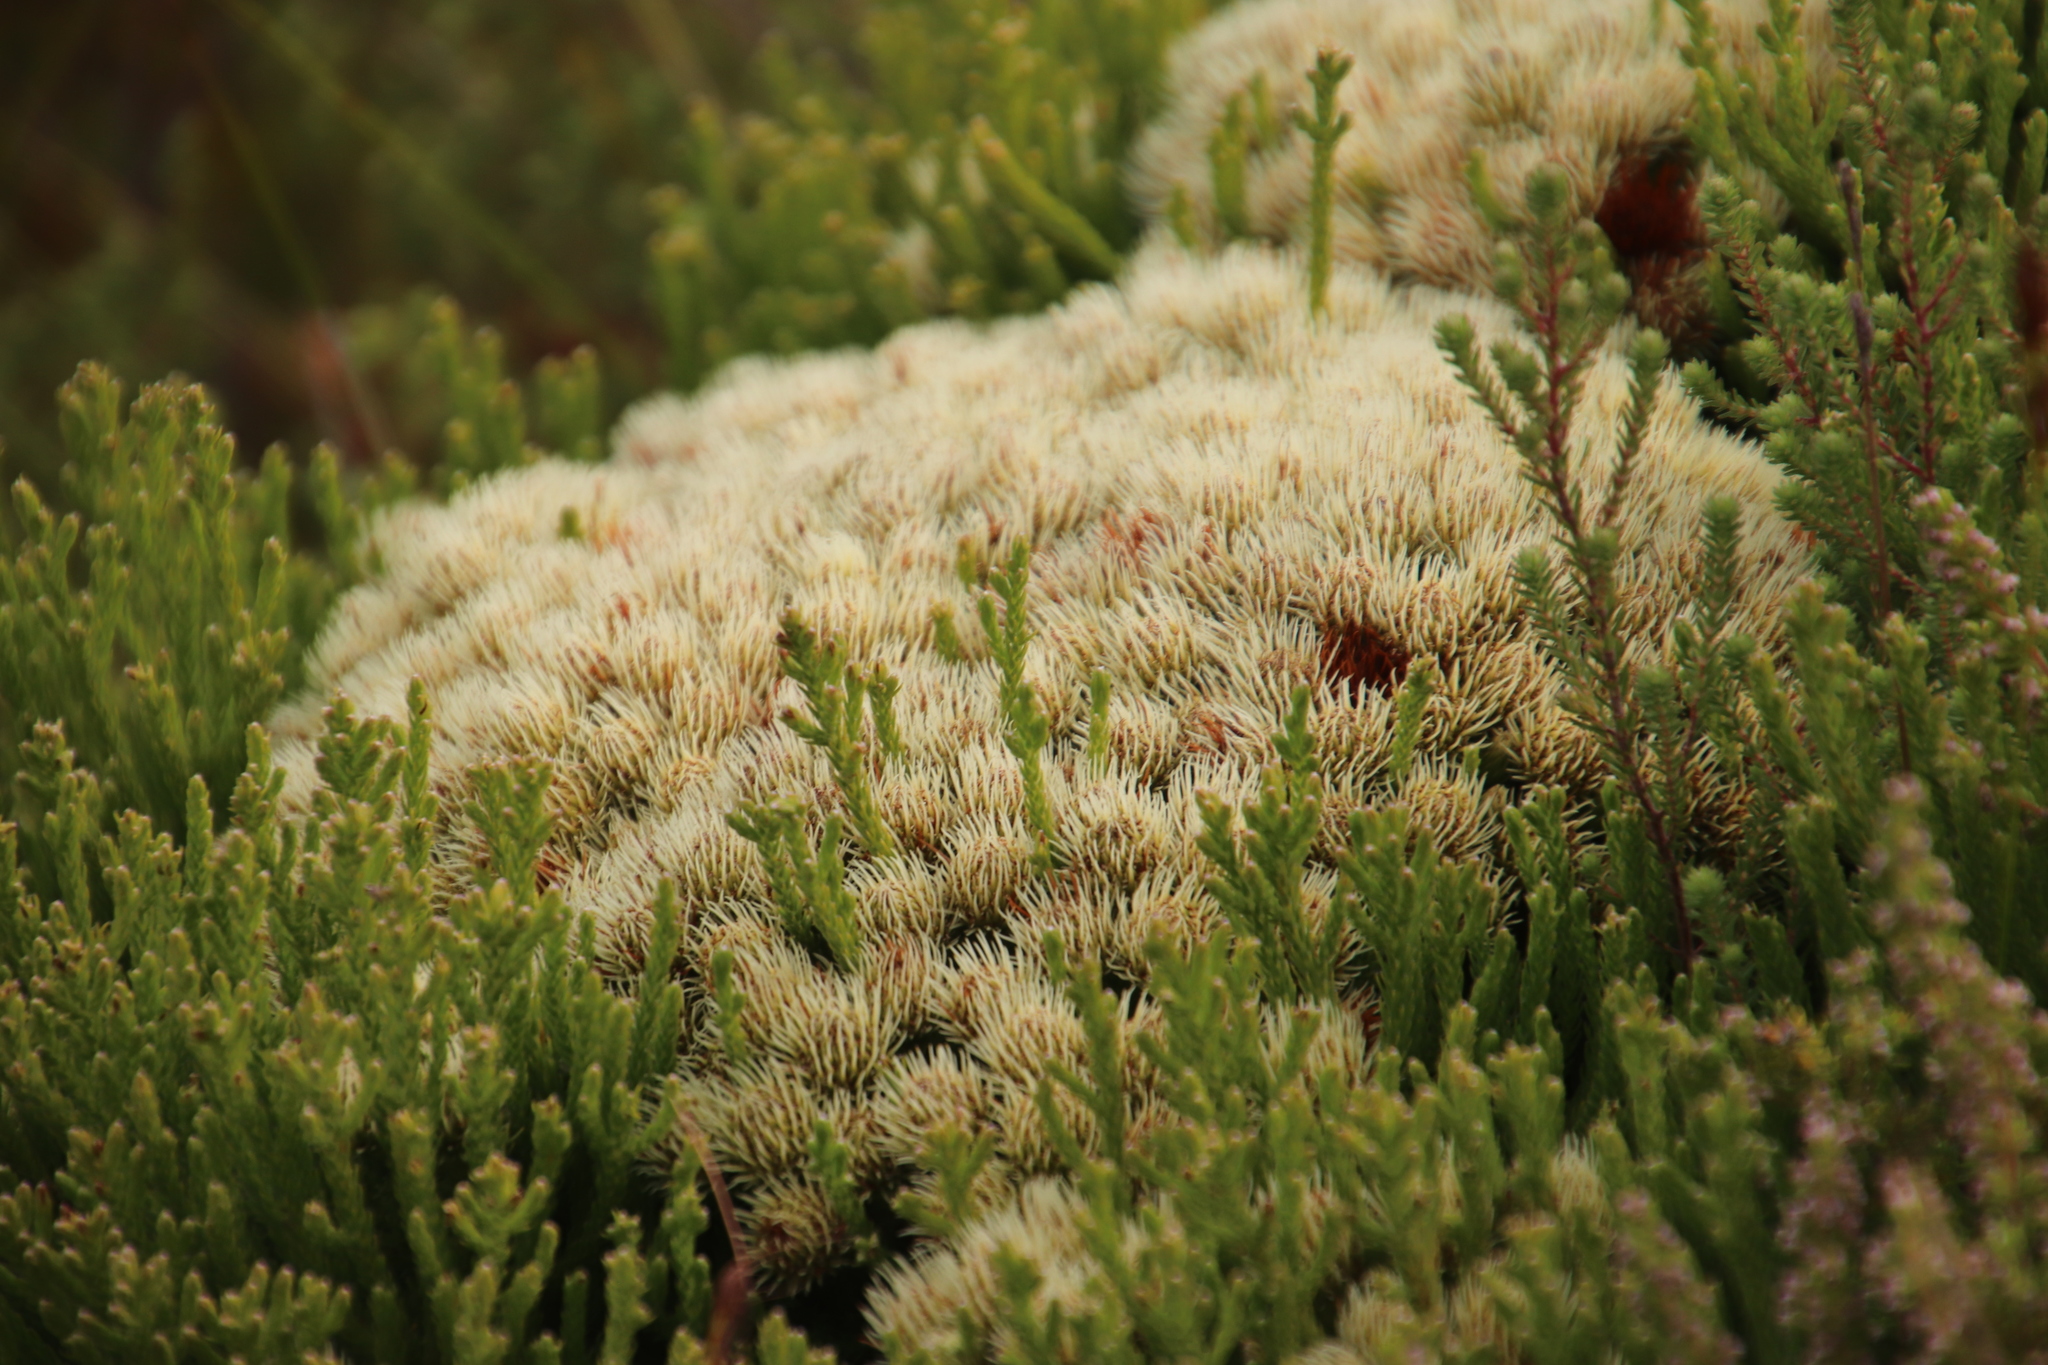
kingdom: Plantae
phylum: Tracheophyta
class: Magnoliopsida
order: Bruniales
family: Bruniaceae
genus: Brunia
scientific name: Brunia paleacea
